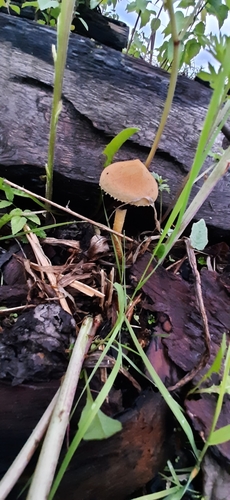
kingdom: Fungi
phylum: Basidiomycota
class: Agaricomycetes
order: Agaricales
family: Strophariaceae
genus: Leratiomyces
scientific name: Leratiomyces magnivelaris
